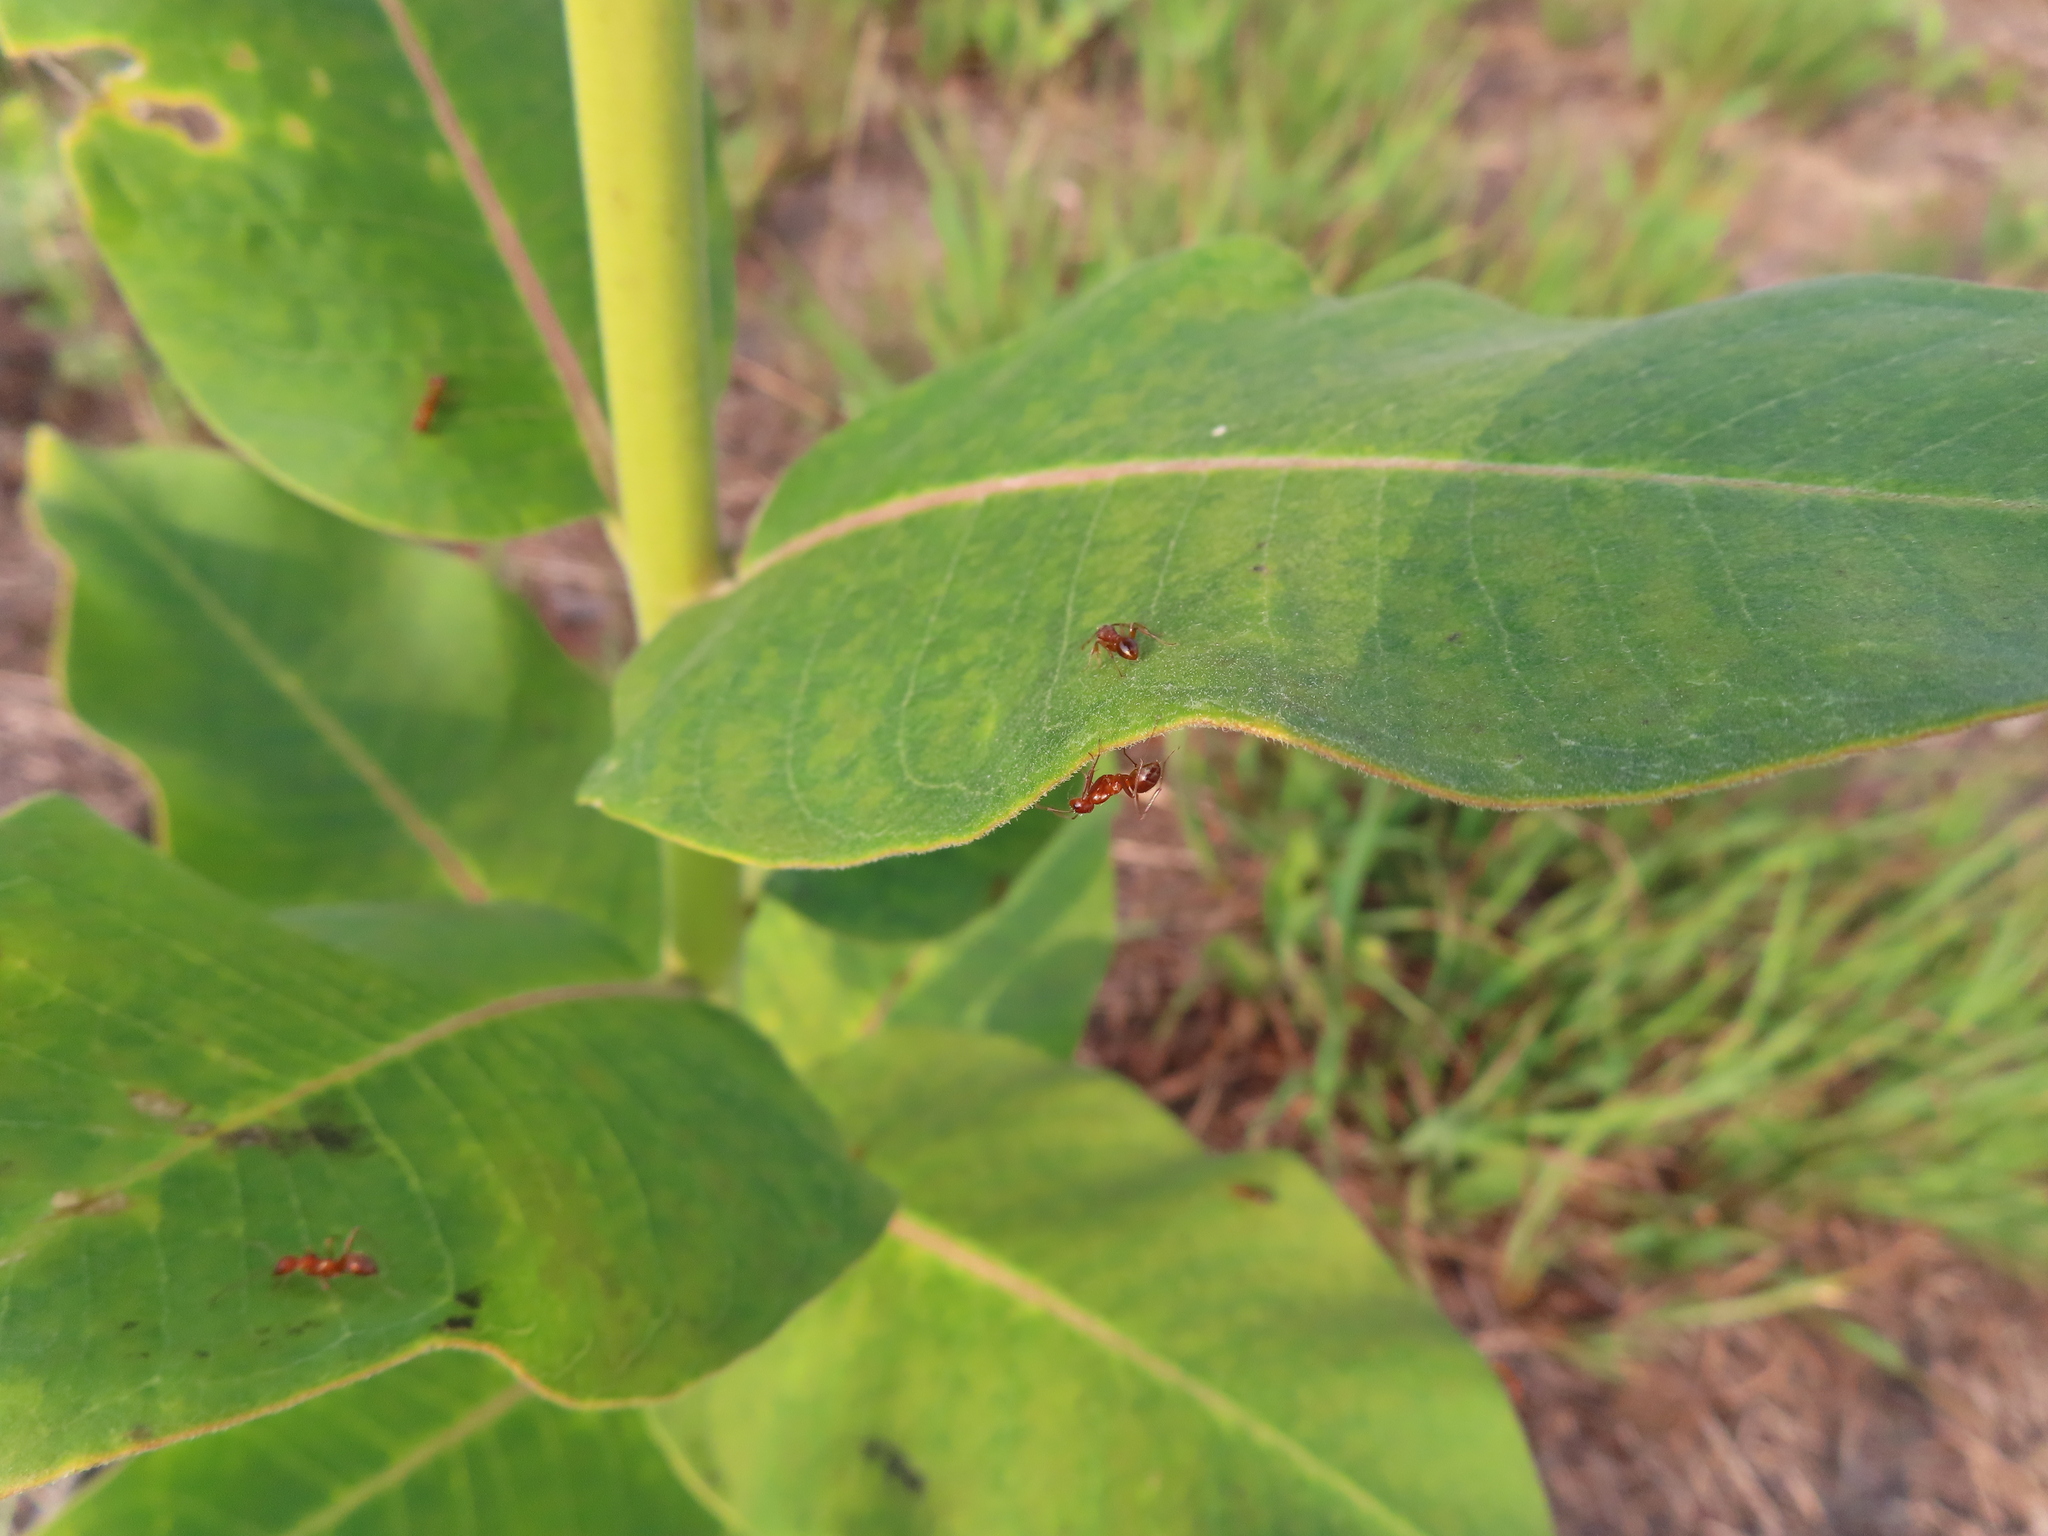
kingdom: Animalia
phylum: Arthropoda
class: Insecta
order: Hymenoptera
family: Formicidae
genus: Formica
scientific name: Formica dolosa
